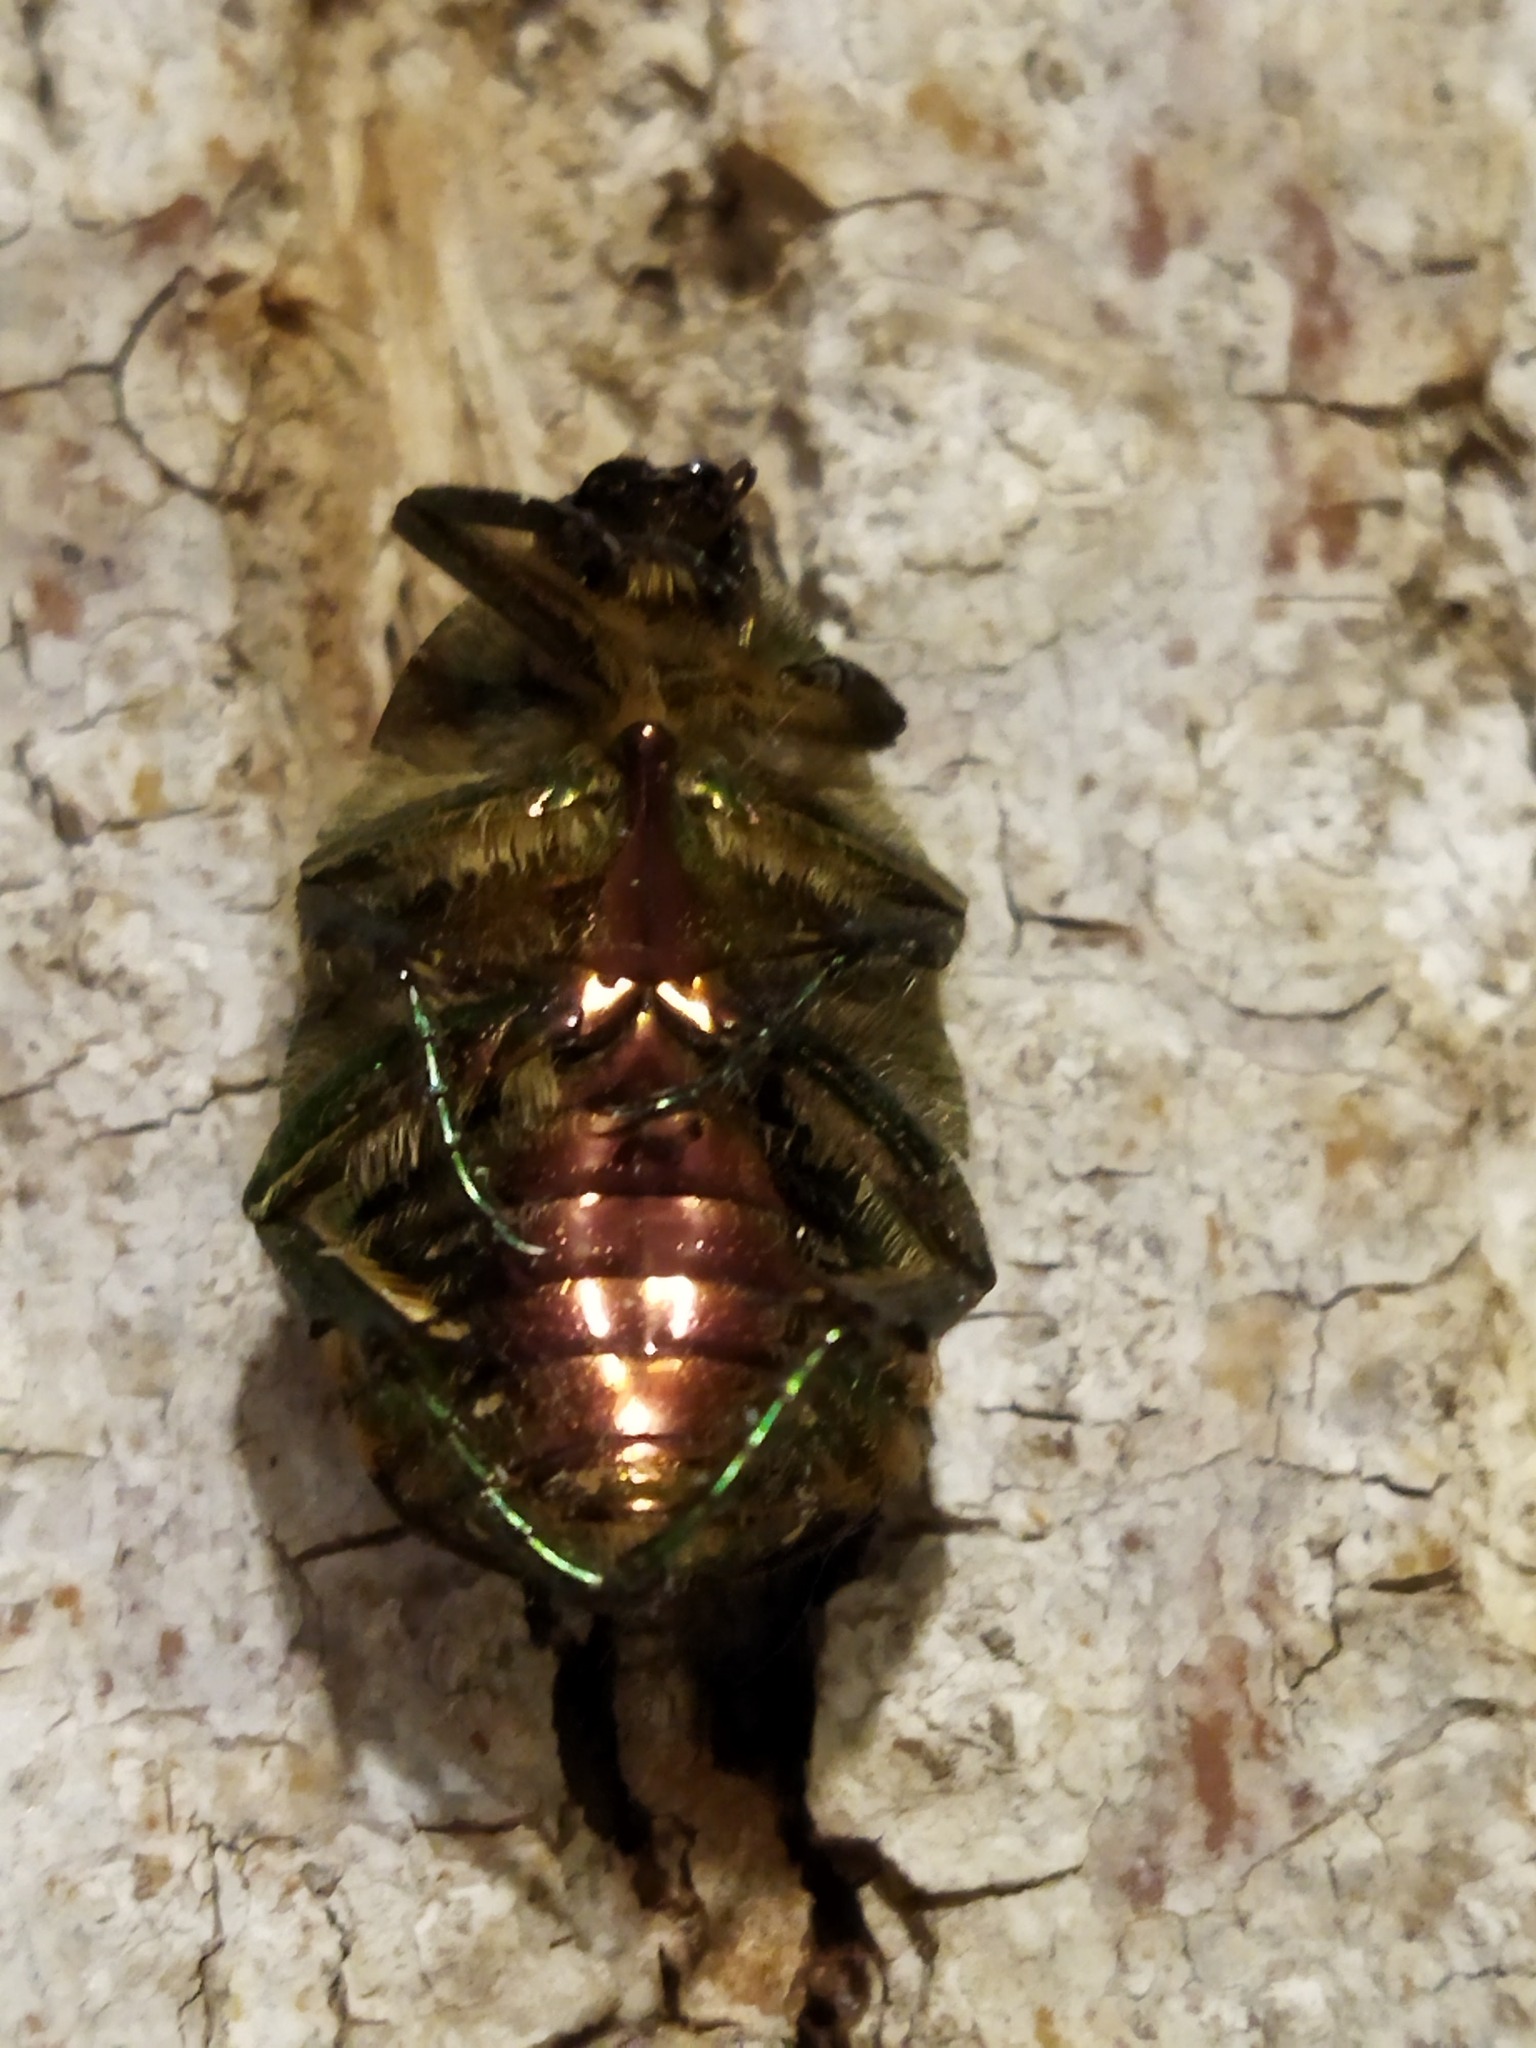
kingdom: Animalia
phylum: Arthropoda
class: Insecta
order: Coleoptera
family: Scarabaeidae
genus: Cetonia
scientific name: Cetonia aurata
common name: Rose chafer
